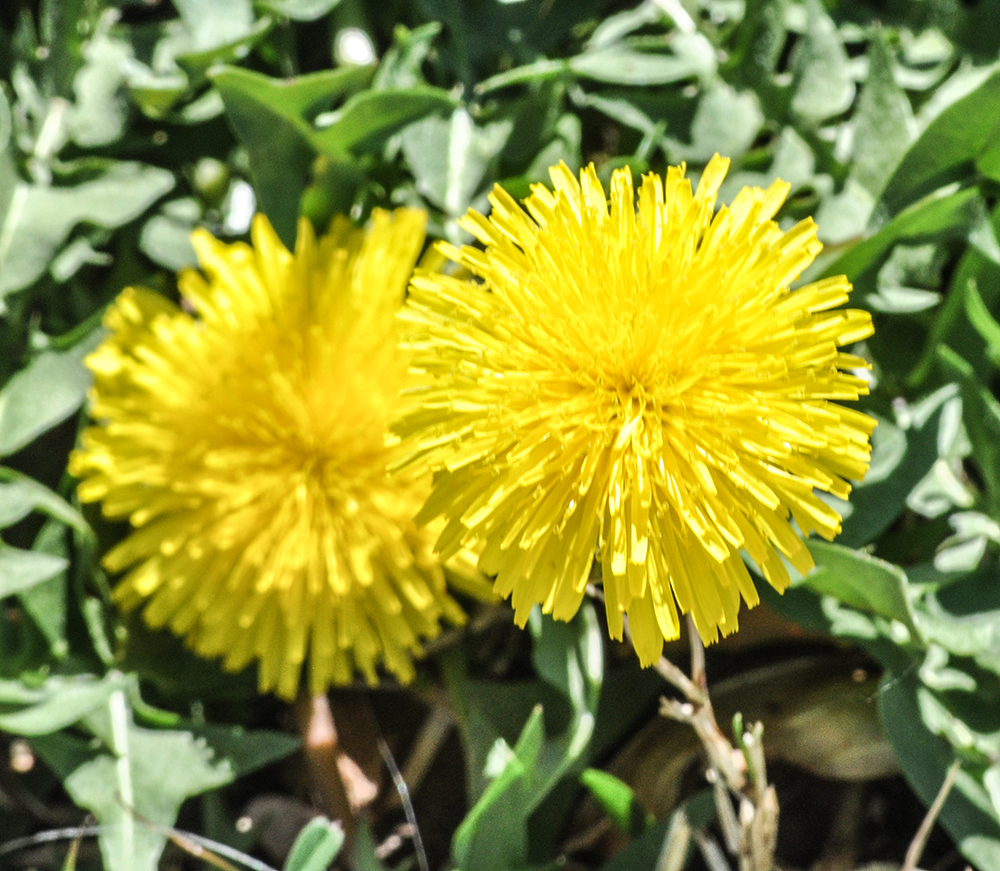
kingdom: Plantae
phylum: Tracheophyta
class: Magnoliopsida
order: Asterales
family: Asteraceae
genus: Taraxacum
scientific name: Taraxacum officinale
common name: Common dandelion
